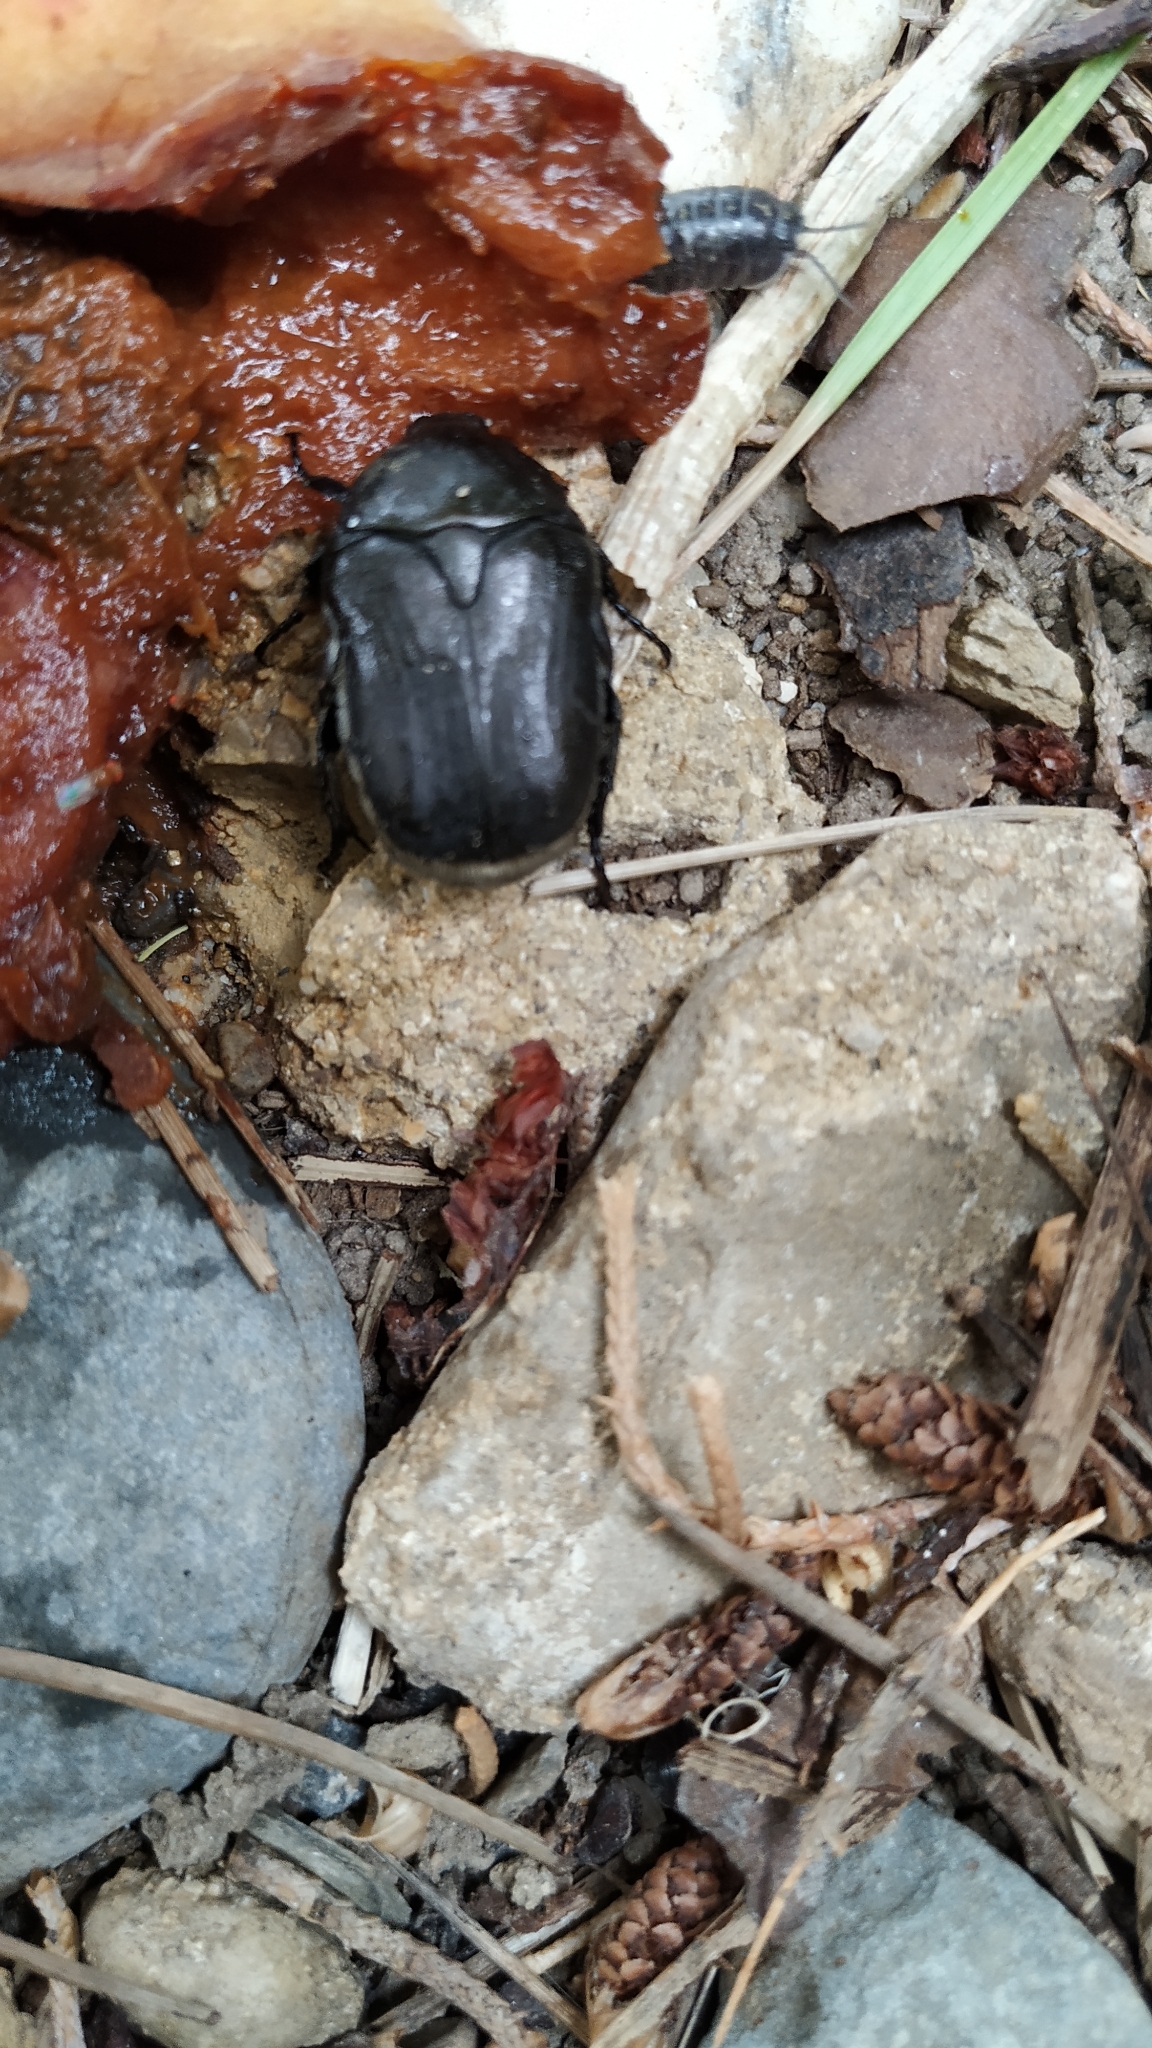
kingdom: Animalia
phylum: Arthropoda
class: Insecta
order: Coleoptera
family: Scarabaeidae
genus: Protaetia
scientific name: Protaetia morio
